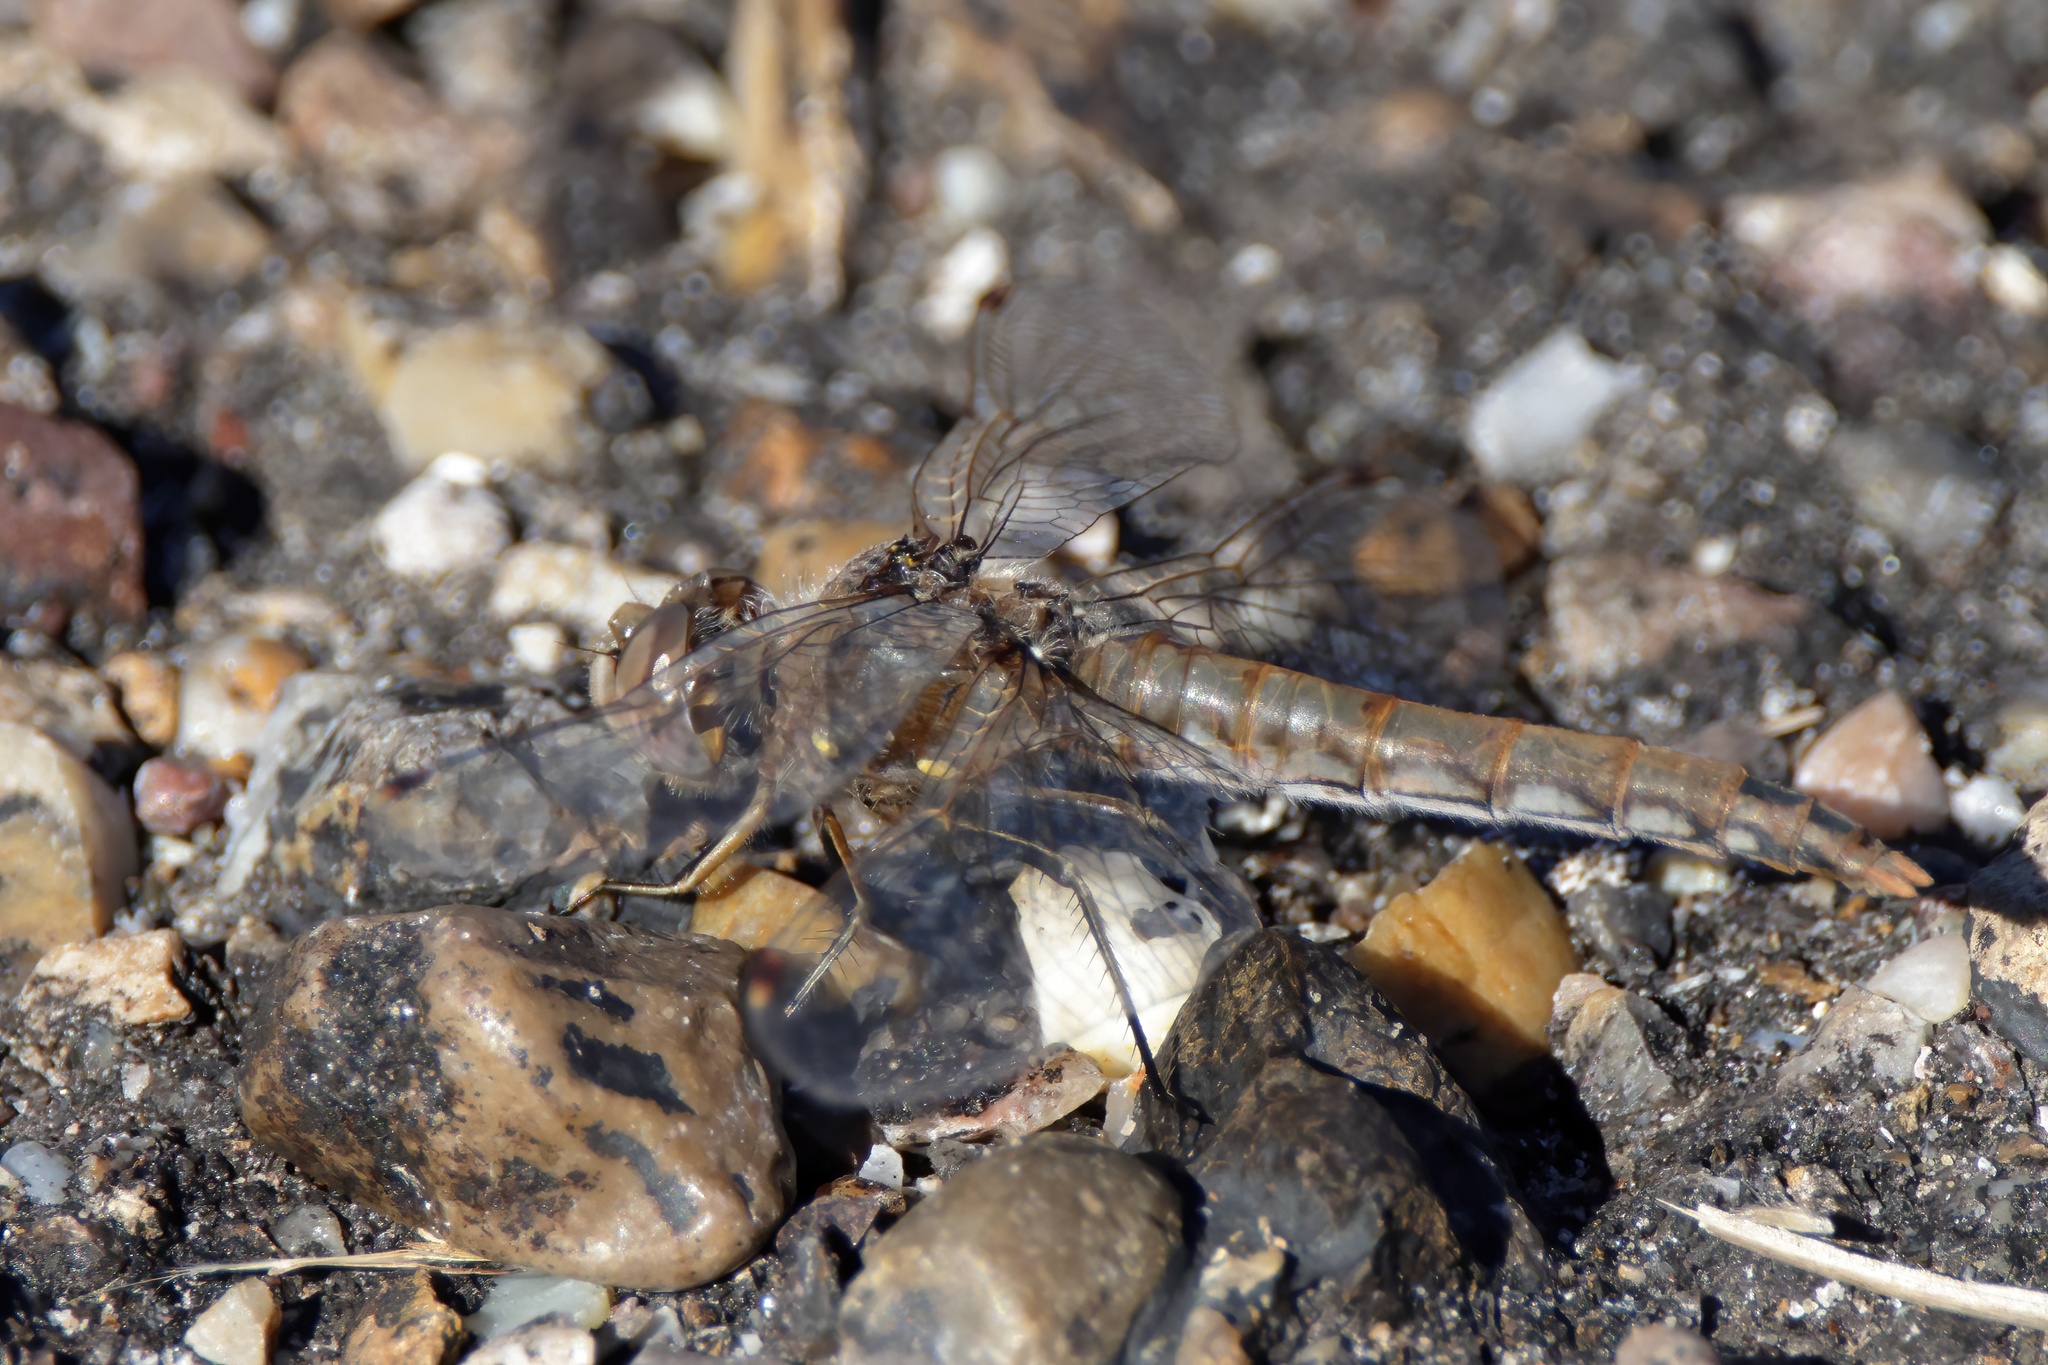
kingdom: Animalia
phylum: Arthropoda
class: Insecta
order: Odonata
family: Libellulidae
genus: Sympetrum
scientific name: Sympetrum corruptum
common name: Variegated meadowhawk
